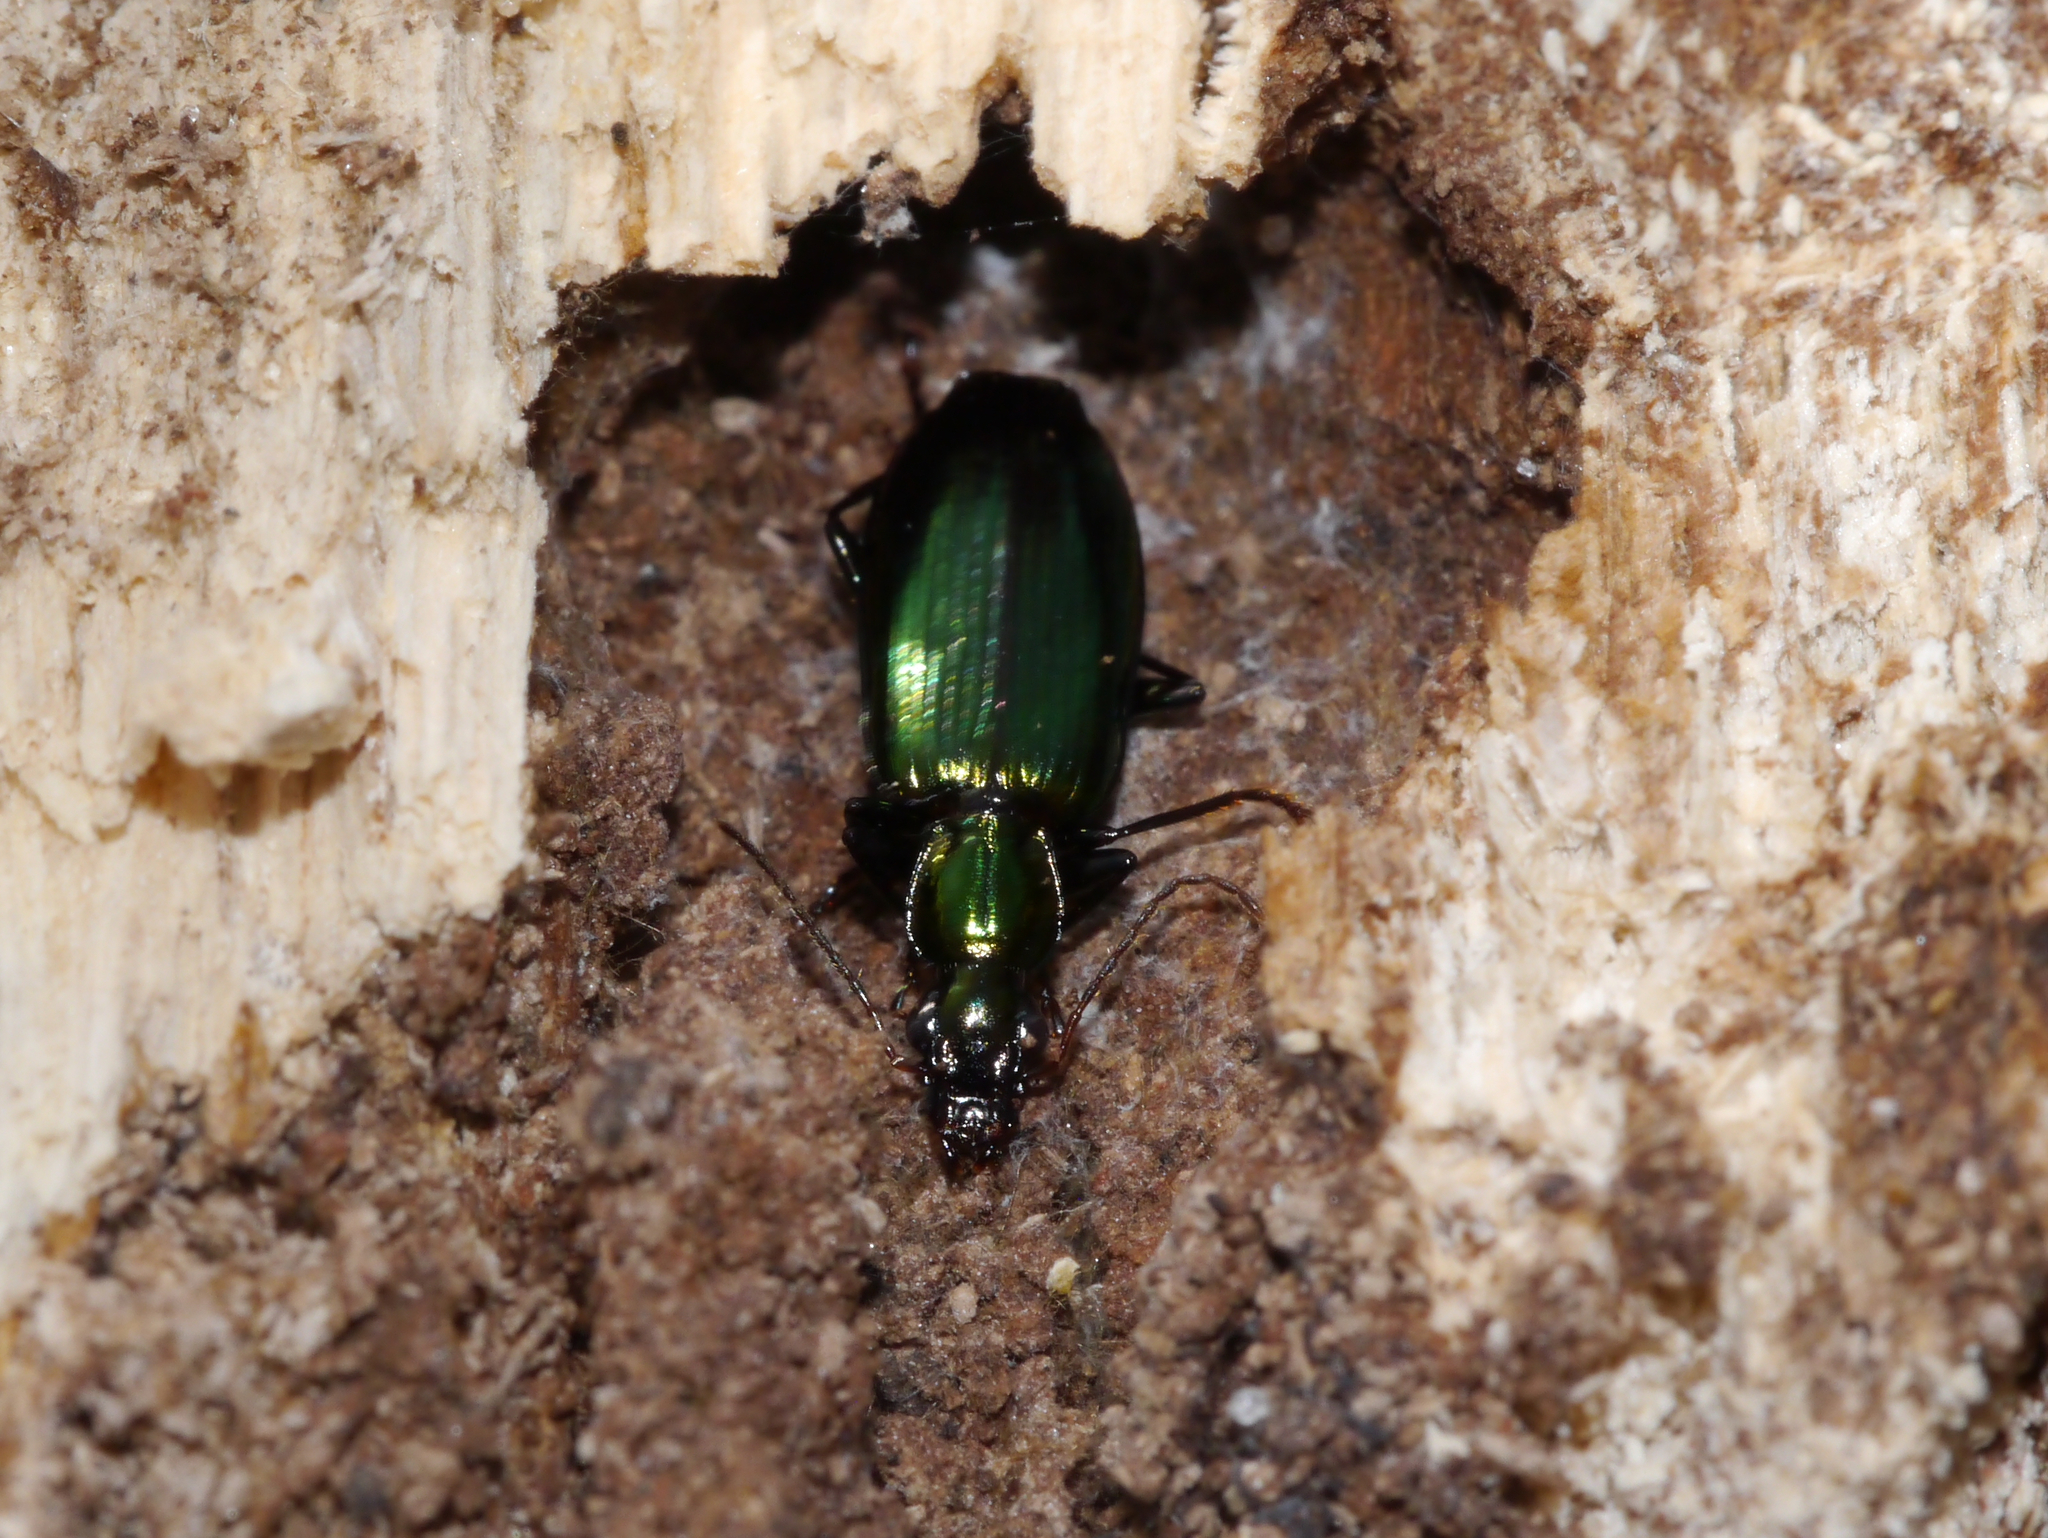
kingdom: Animalia
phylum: Arthropoda
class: Insecta
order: Coleoptera
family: Carabidae
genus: Calleida
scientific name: Calleida viridipennis
